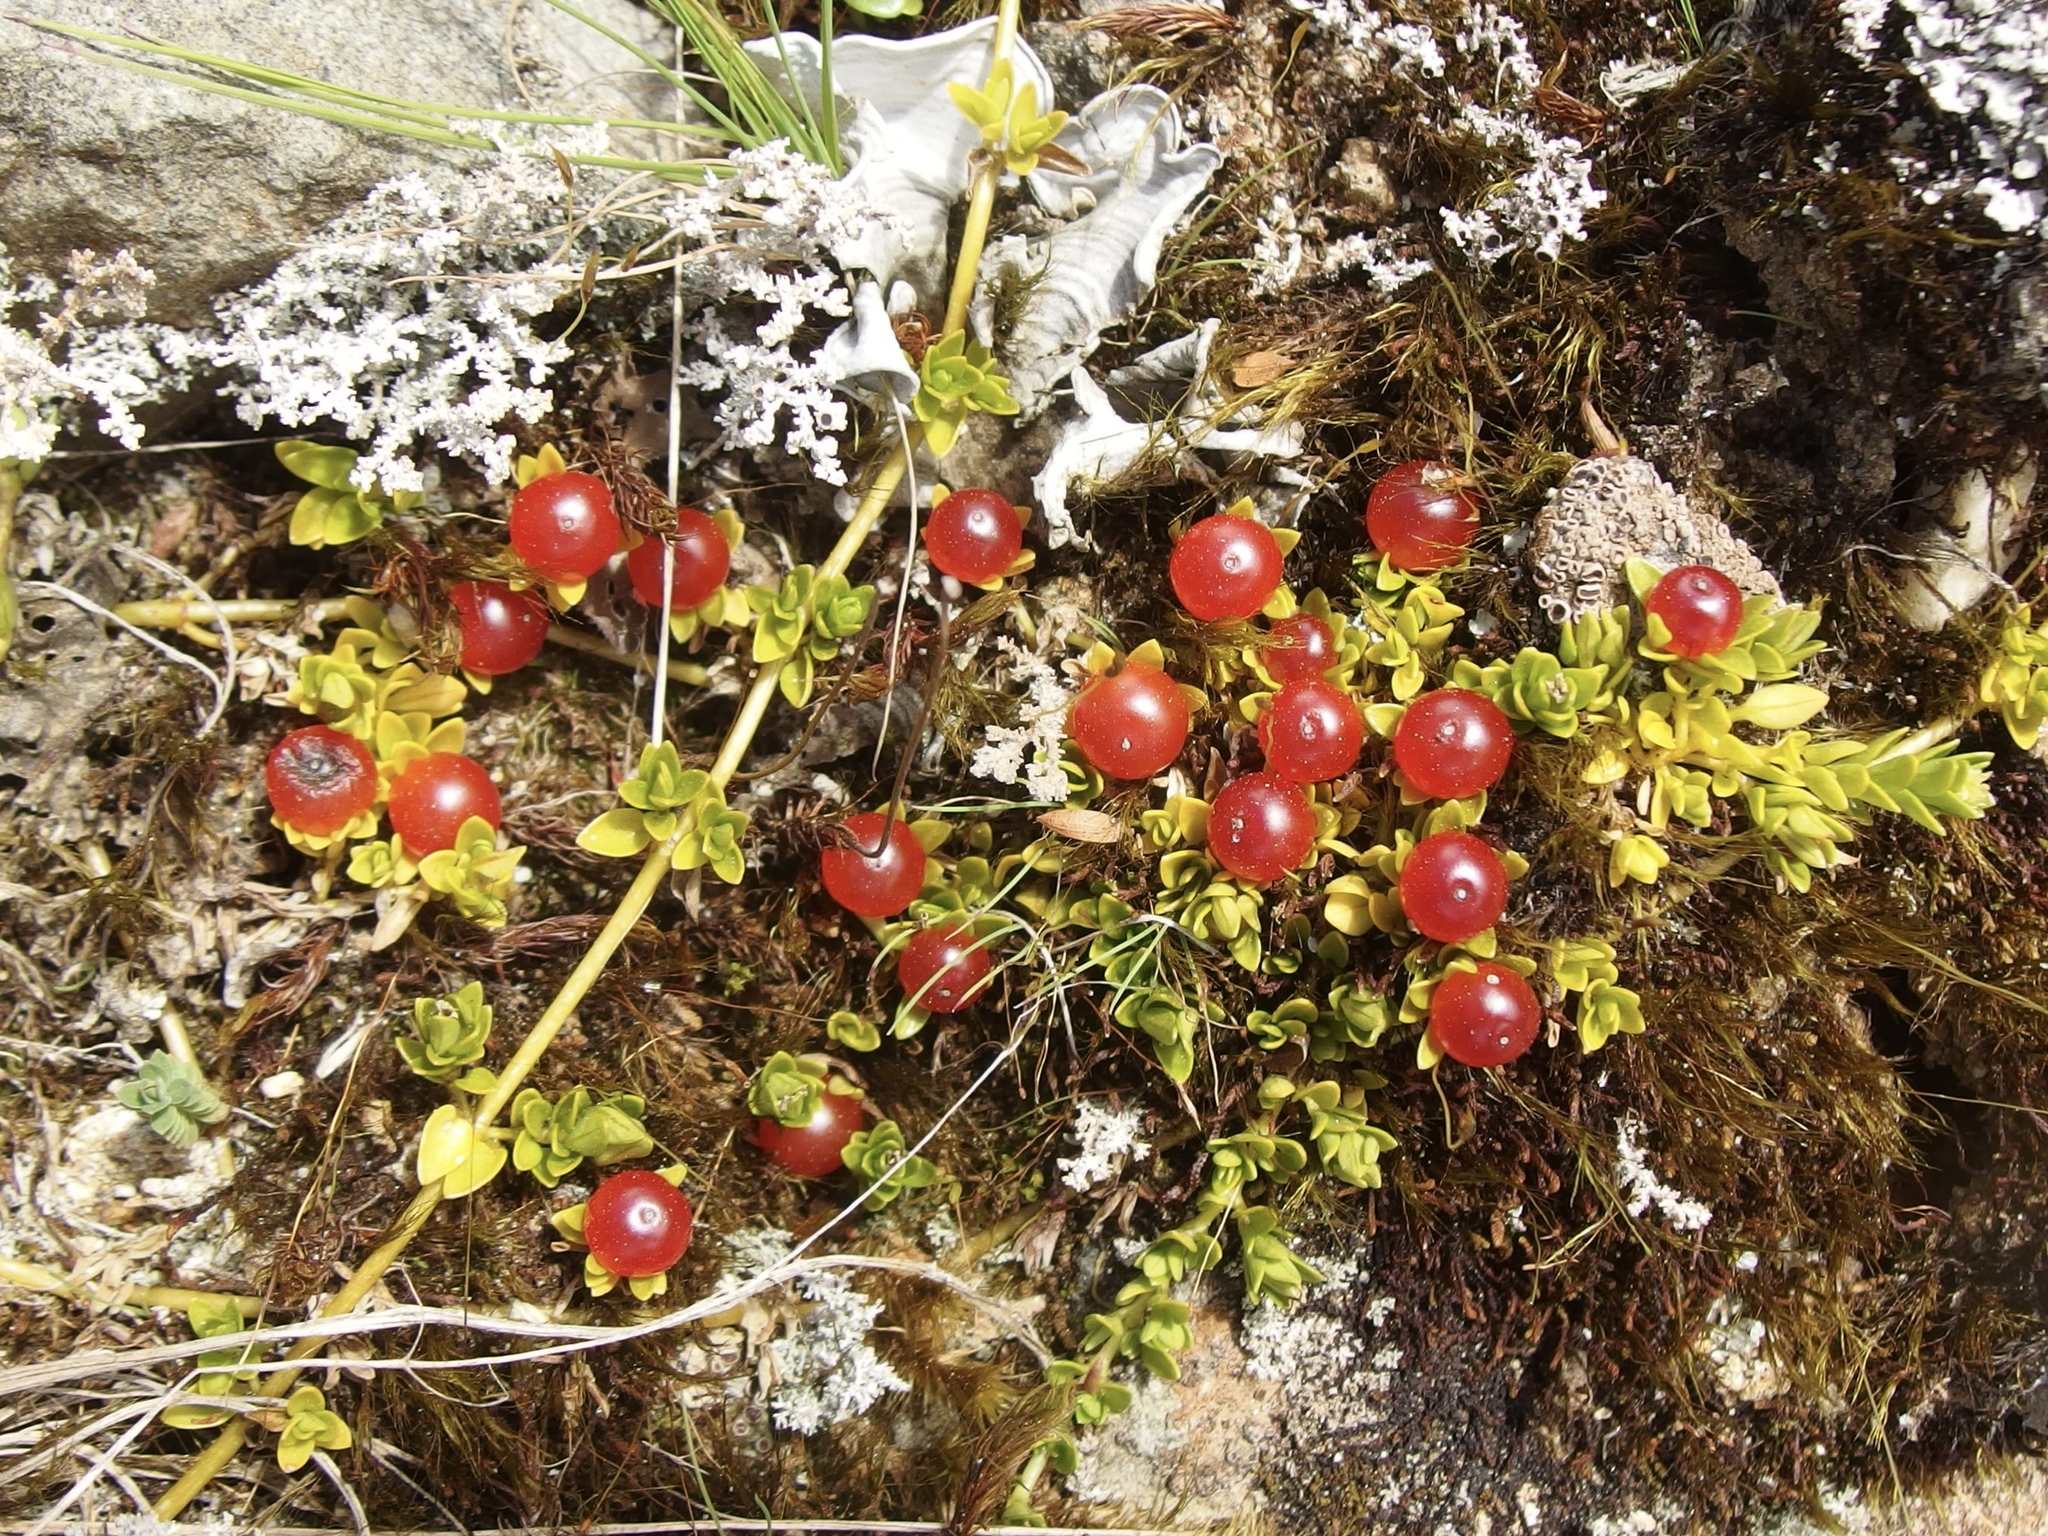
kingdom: Plantae
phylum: Tracheophyta
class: Magnoliopsida
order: Gentianales
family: Rubiaceae
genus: Nertera
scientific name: Nertera granadensis
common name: Beadplant
